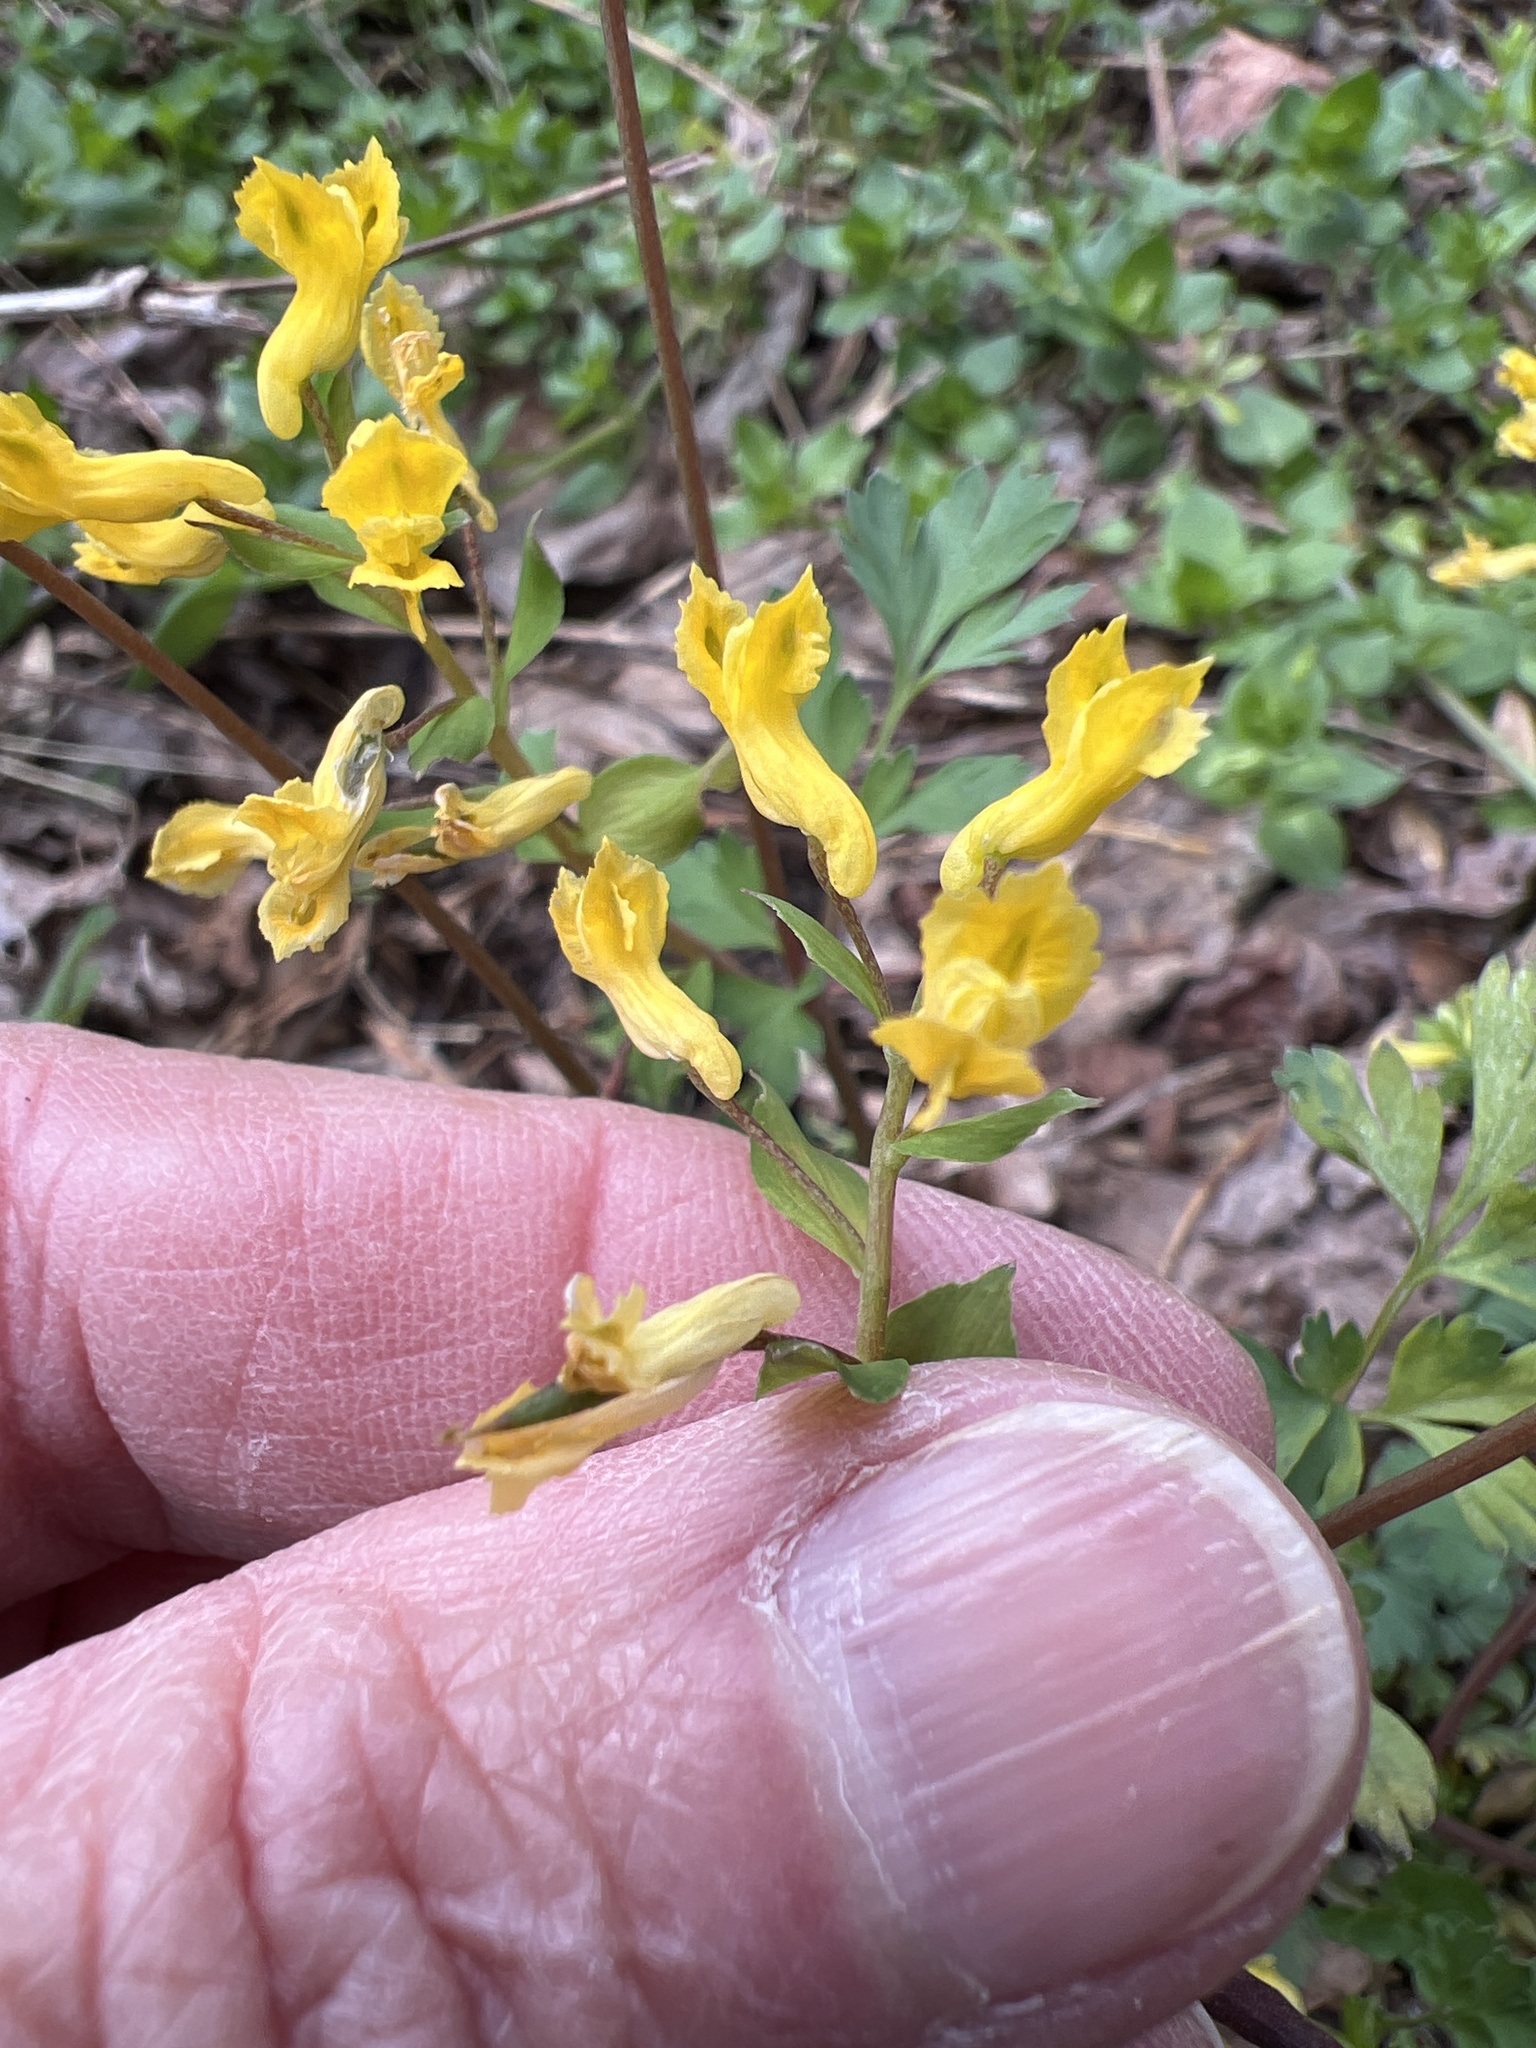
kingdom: Plantae
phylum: Tracheophyta
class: Magnoliopsida
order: Ranunculales
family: Papaveraceae
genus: Corydalis
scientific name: Corydalis flavula
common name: Yellow corydalis
